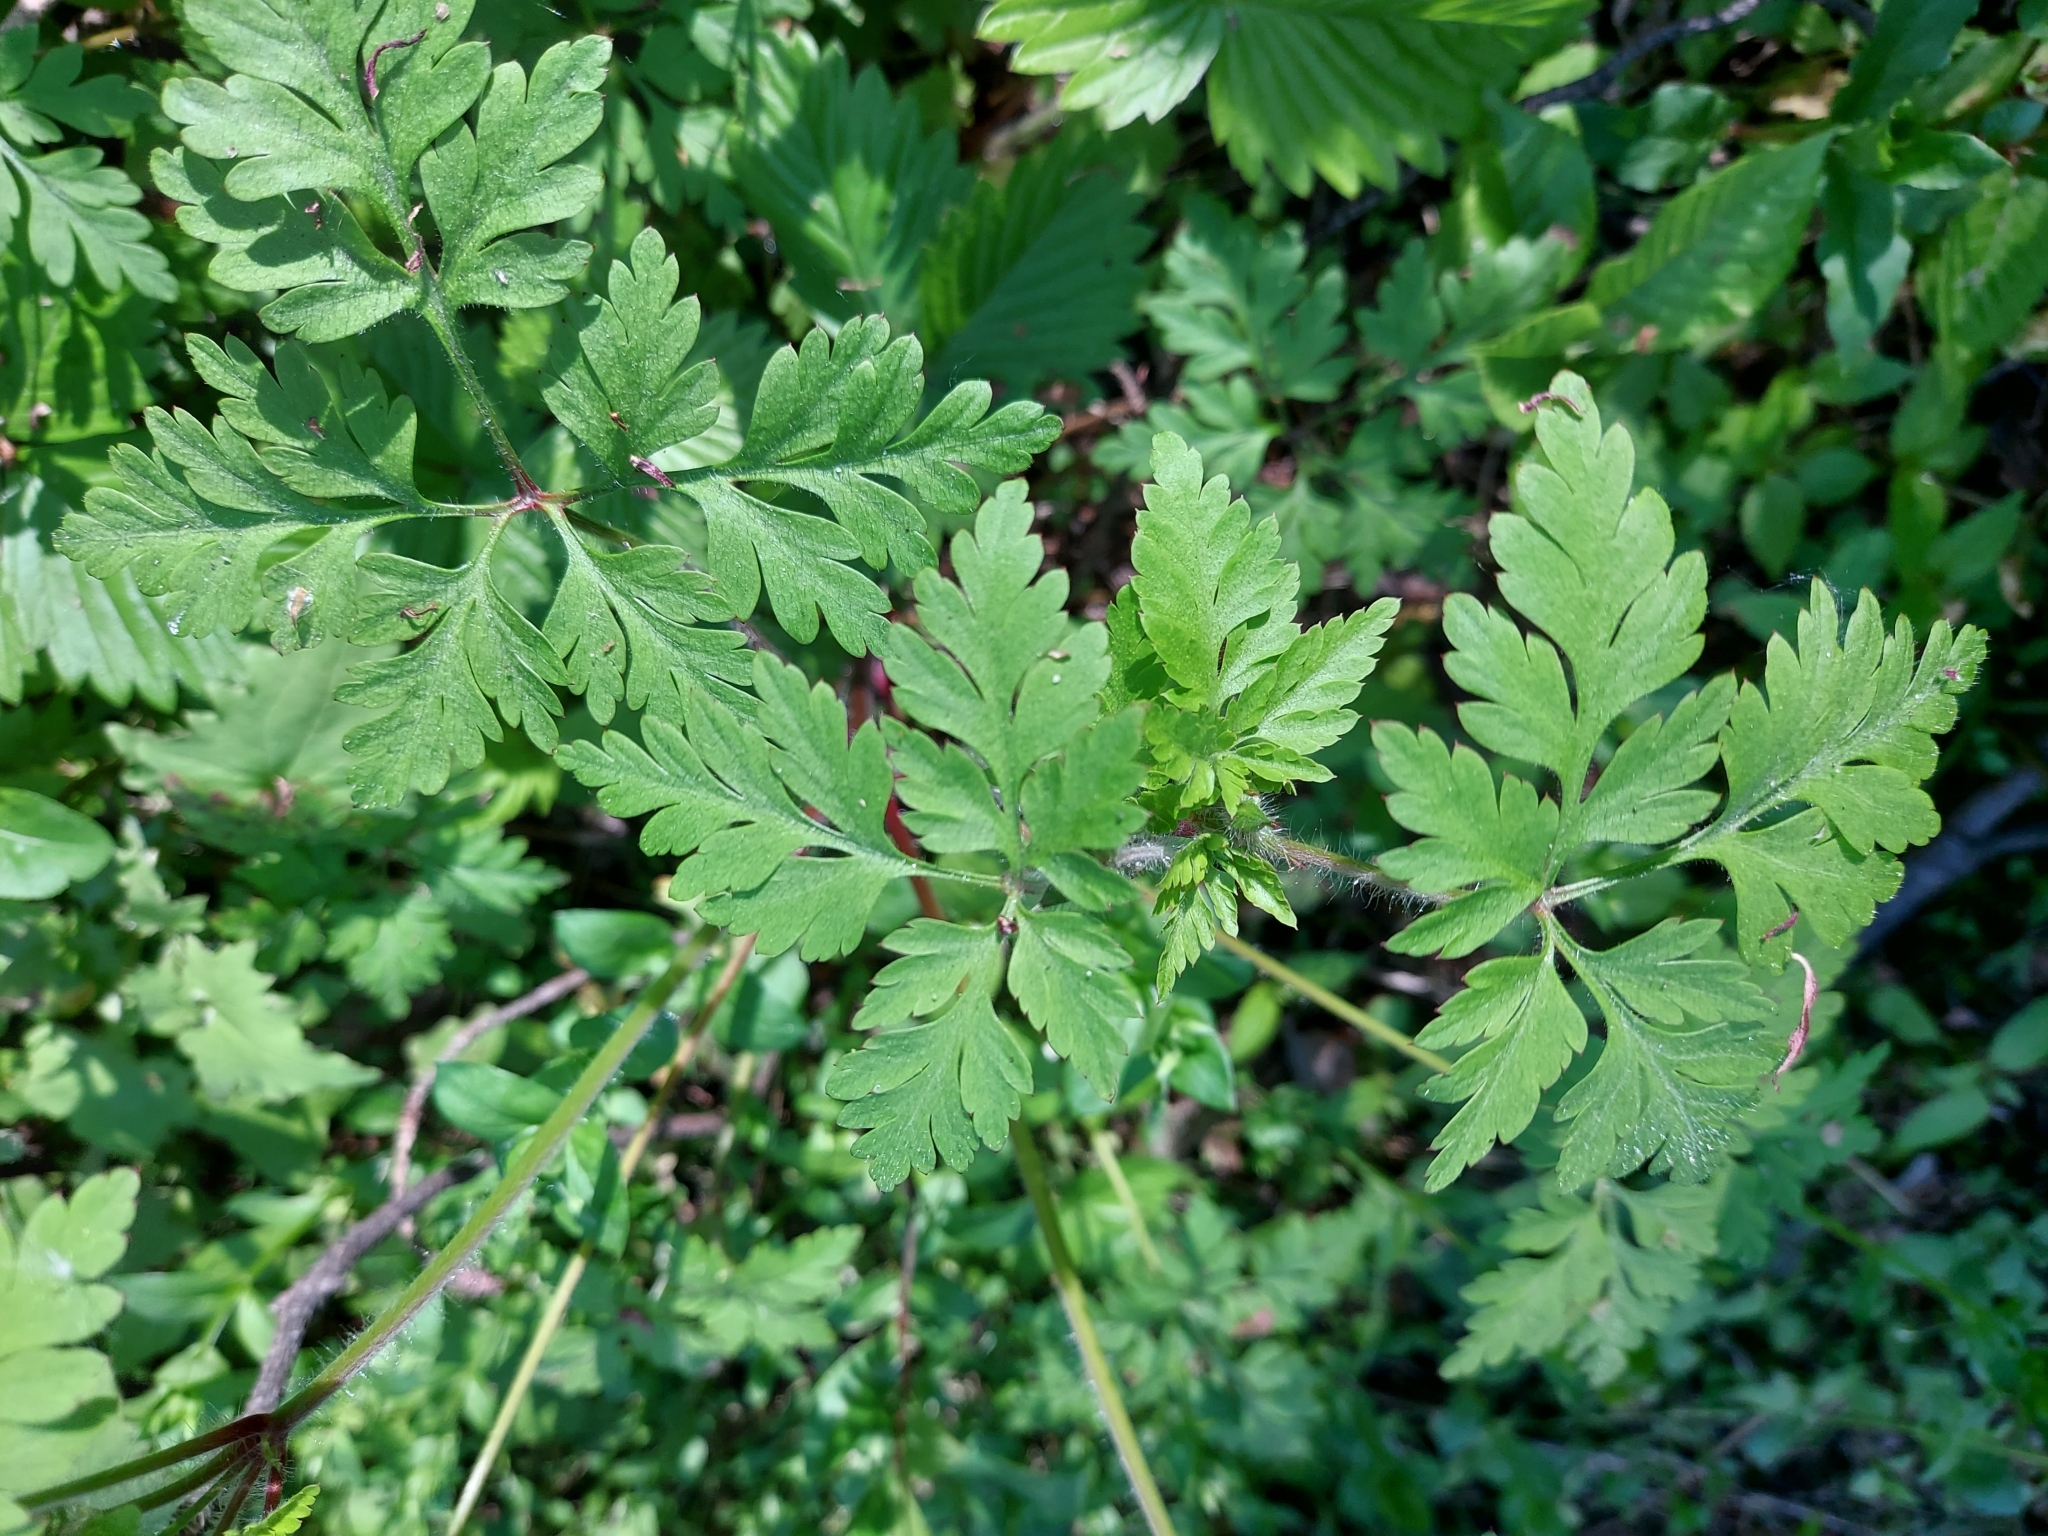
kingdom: Plantae
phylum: Tracheophyta
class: Magnoliopsida
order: Geraniales
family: Geraniaceae
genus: Geranium
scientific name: Geranium robertianum
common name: Herb-robert
